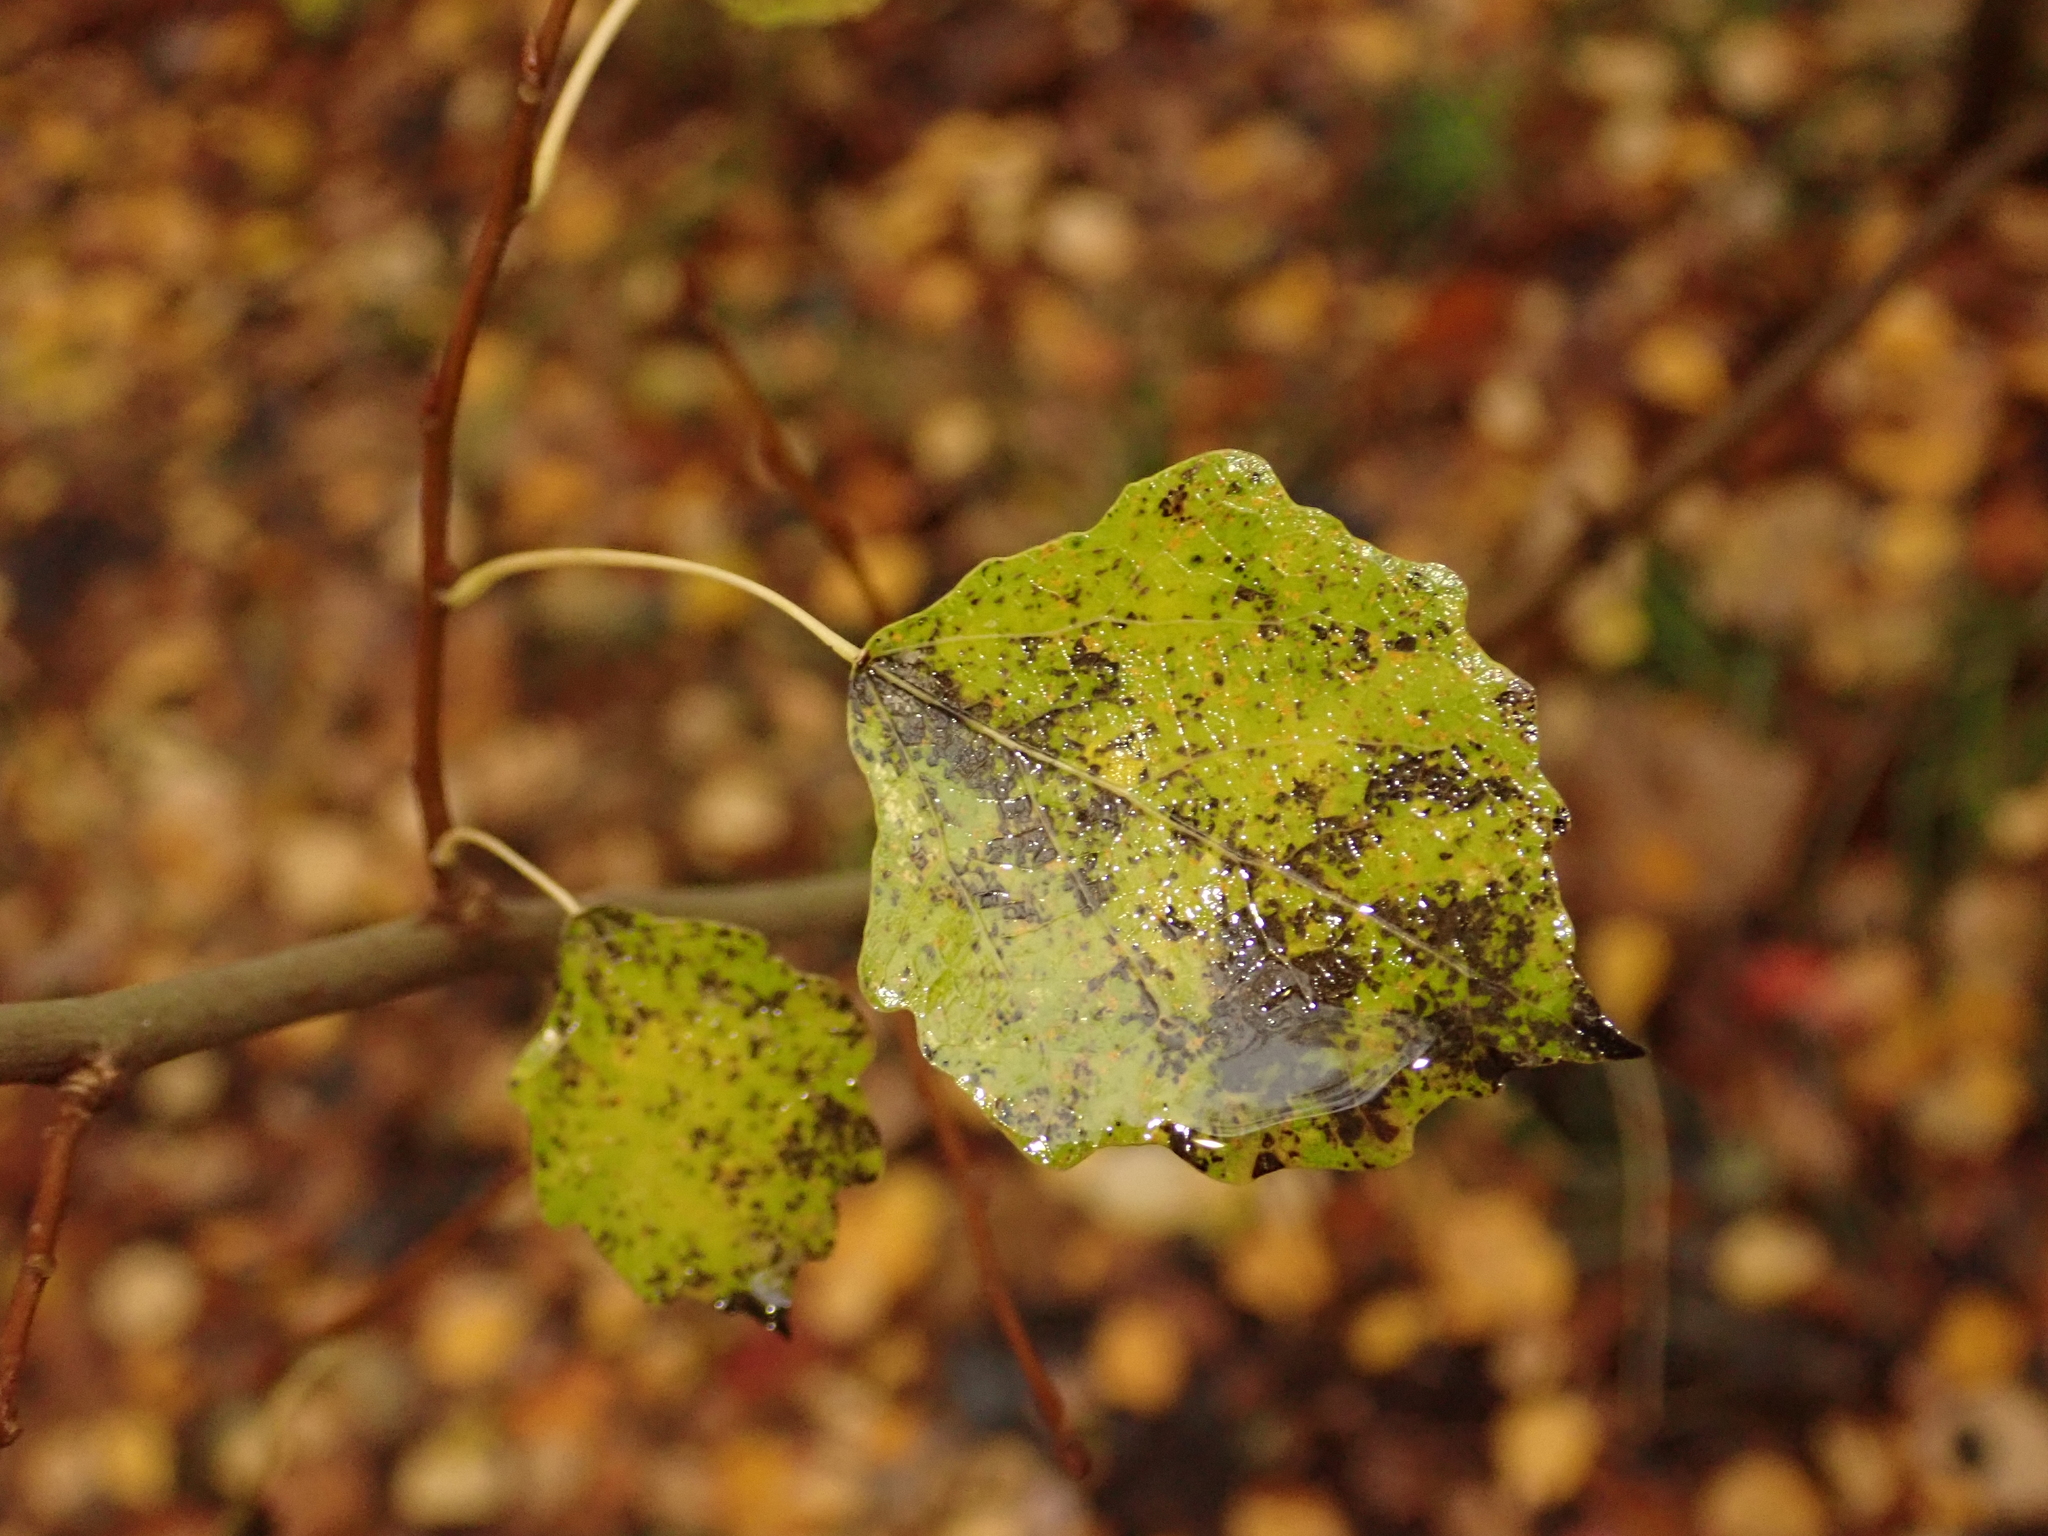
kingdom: Plantae
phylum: Tracheophyta
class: Magnoliopsida
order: Malpighiales
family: Salicaceae
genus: Populus
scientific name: Populus tremula
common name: European aspen
